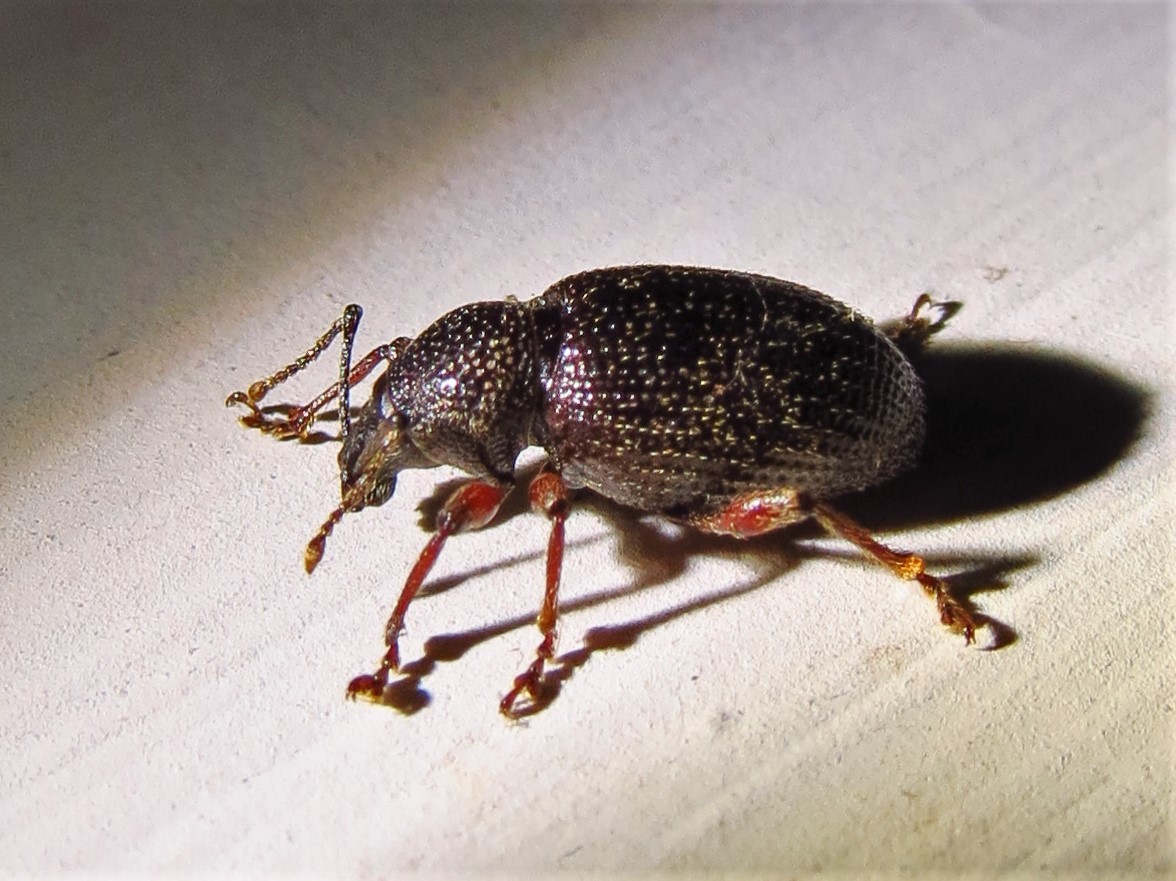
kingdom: Animalia
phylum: Arthropoda
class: Insecta
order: Coleoptera
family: Curculionidae
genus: Otiorhynchus
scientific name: Otiorhynchus cribricollis
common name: Weevil
